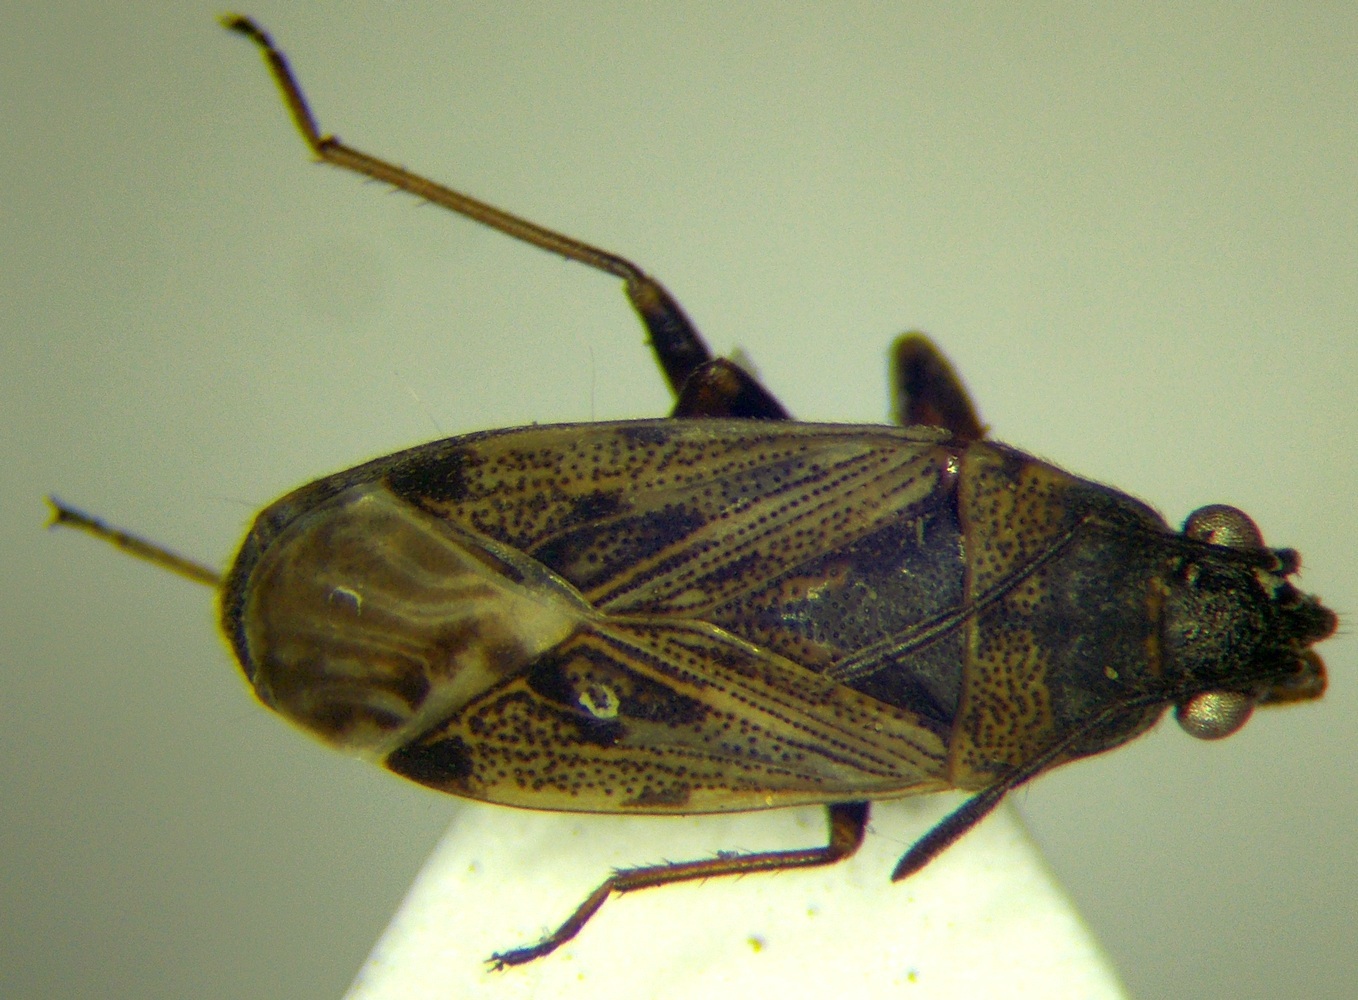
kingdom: Animalia
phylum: Arthropoda
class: Insecta
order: Hemiptera
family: Rhyparochromidae
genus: Peritrechus
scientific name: Peritrechus nubilus
